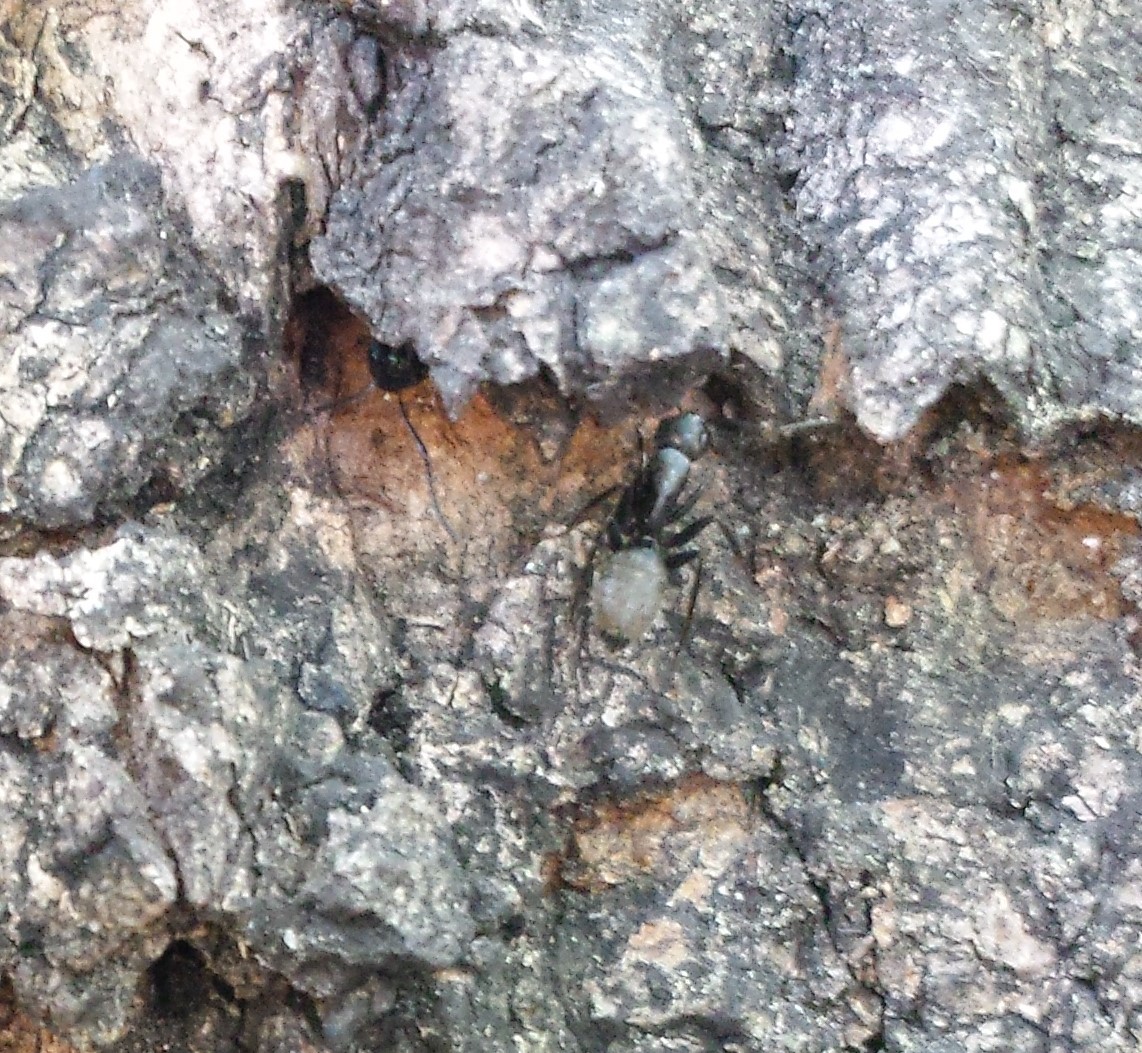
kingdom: Animalia
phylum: Arthropoda
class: Insecta
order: Hymenoptera
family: Formicidae
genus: Camponotus
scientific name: Camponotus pennsylvanicus
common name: Black carpenter ant
